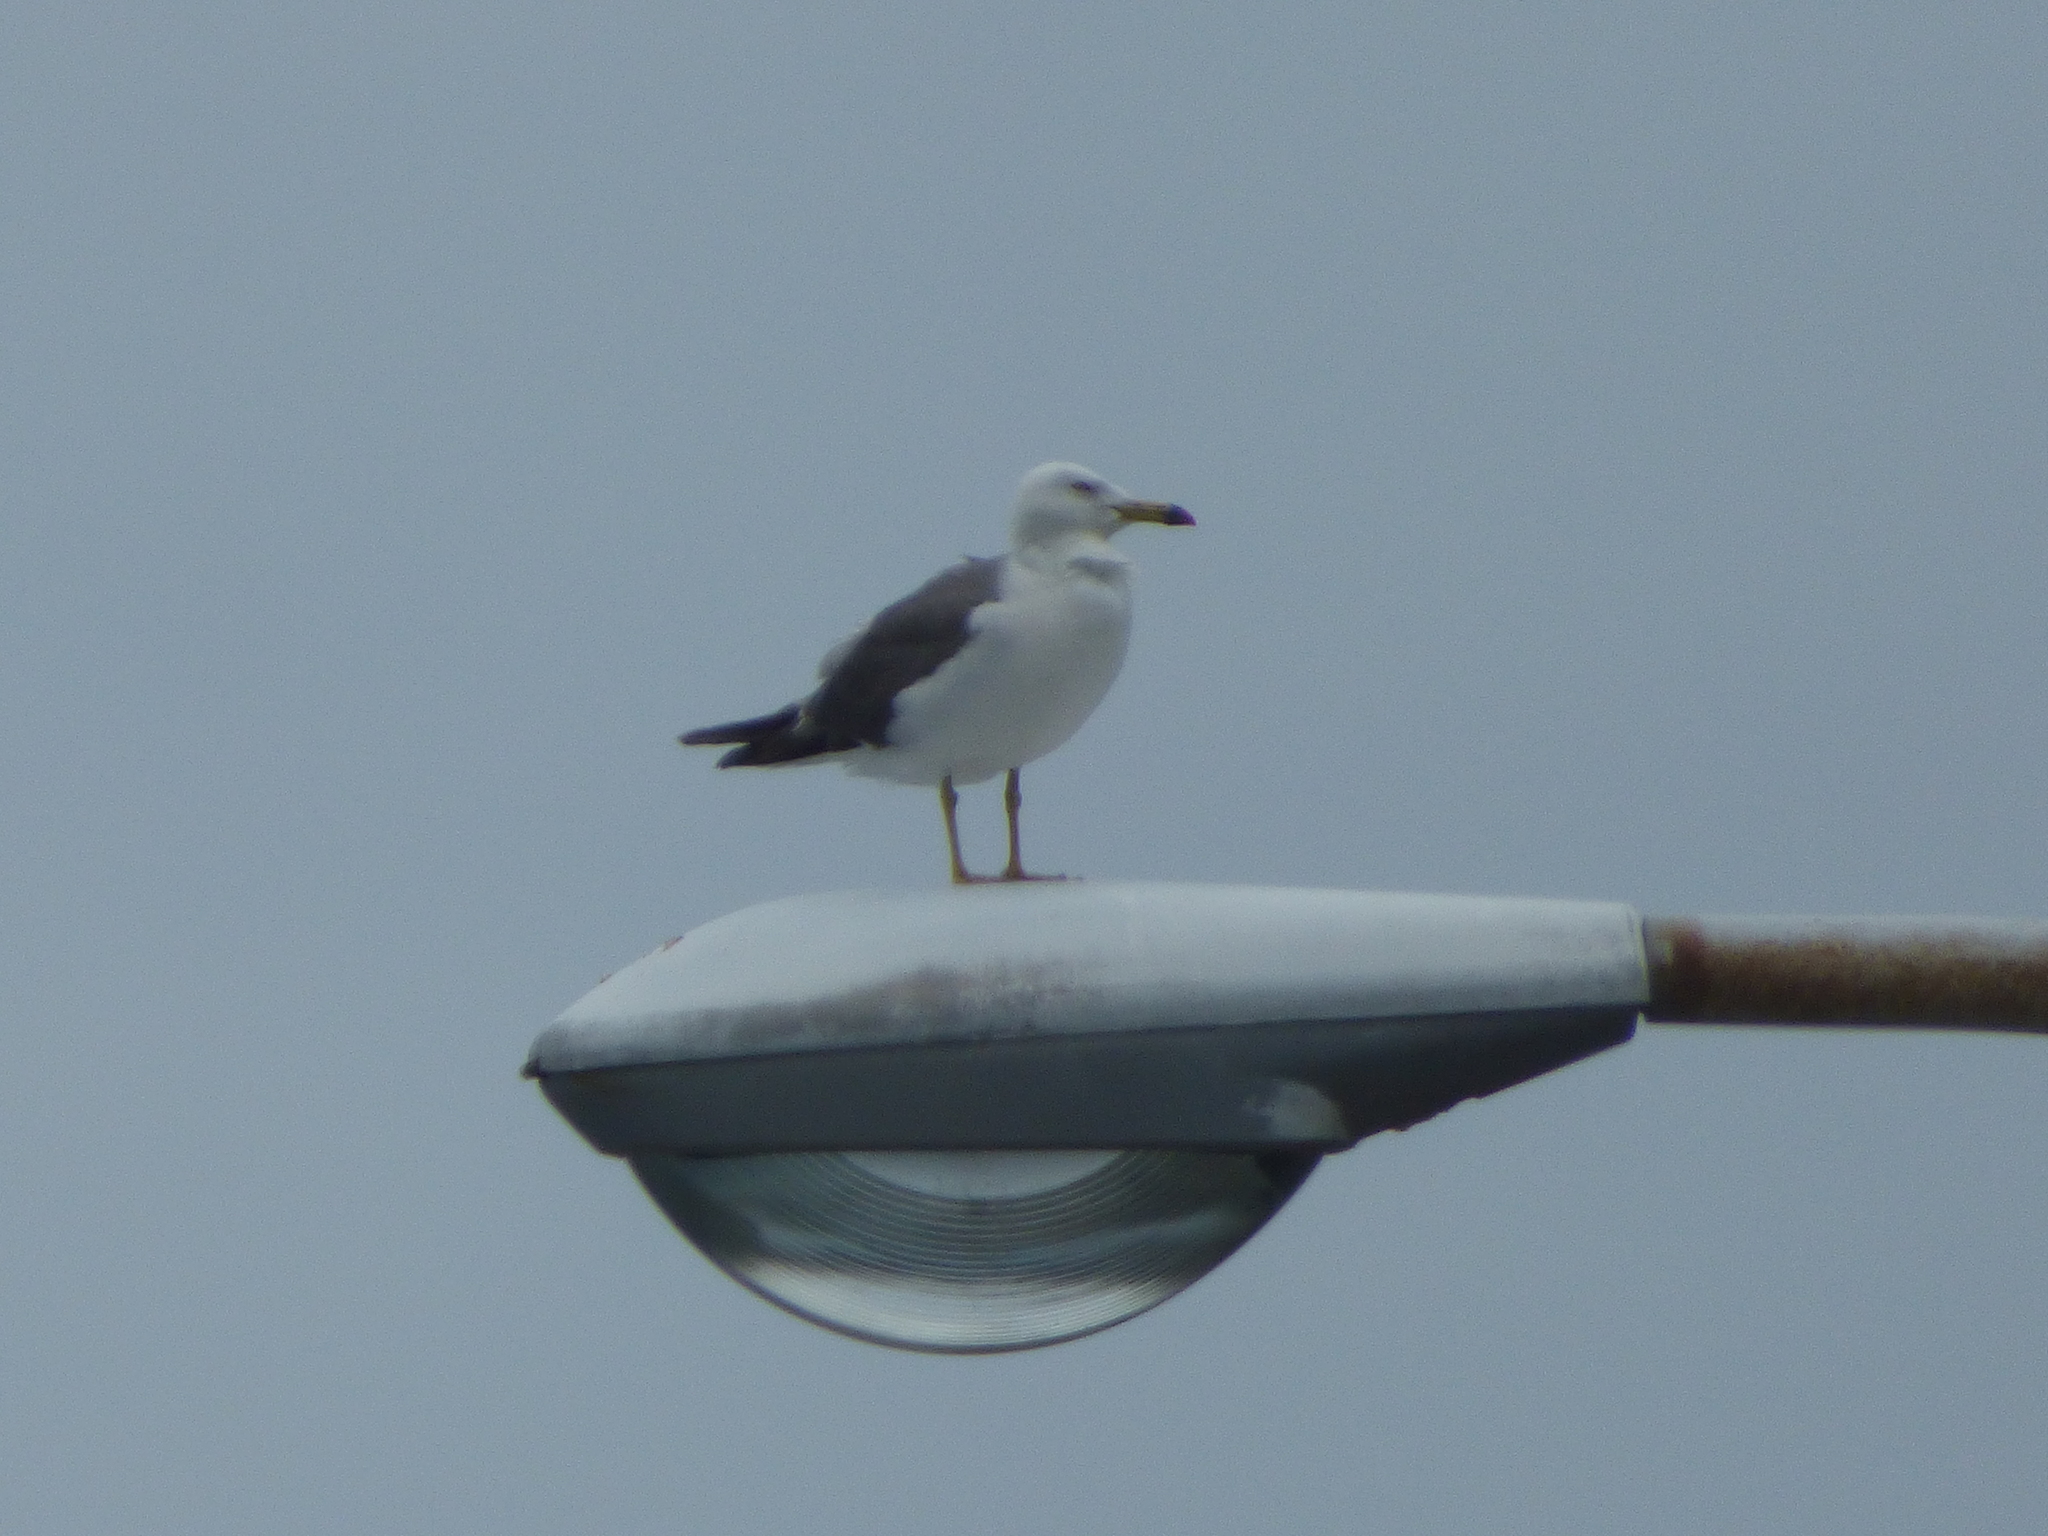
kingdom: Animalia
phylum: Chordata
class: Aves
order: Charadriiformes
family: Laridae
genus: Larus
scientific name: Larus crassirostris
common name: Black-tailed gull
